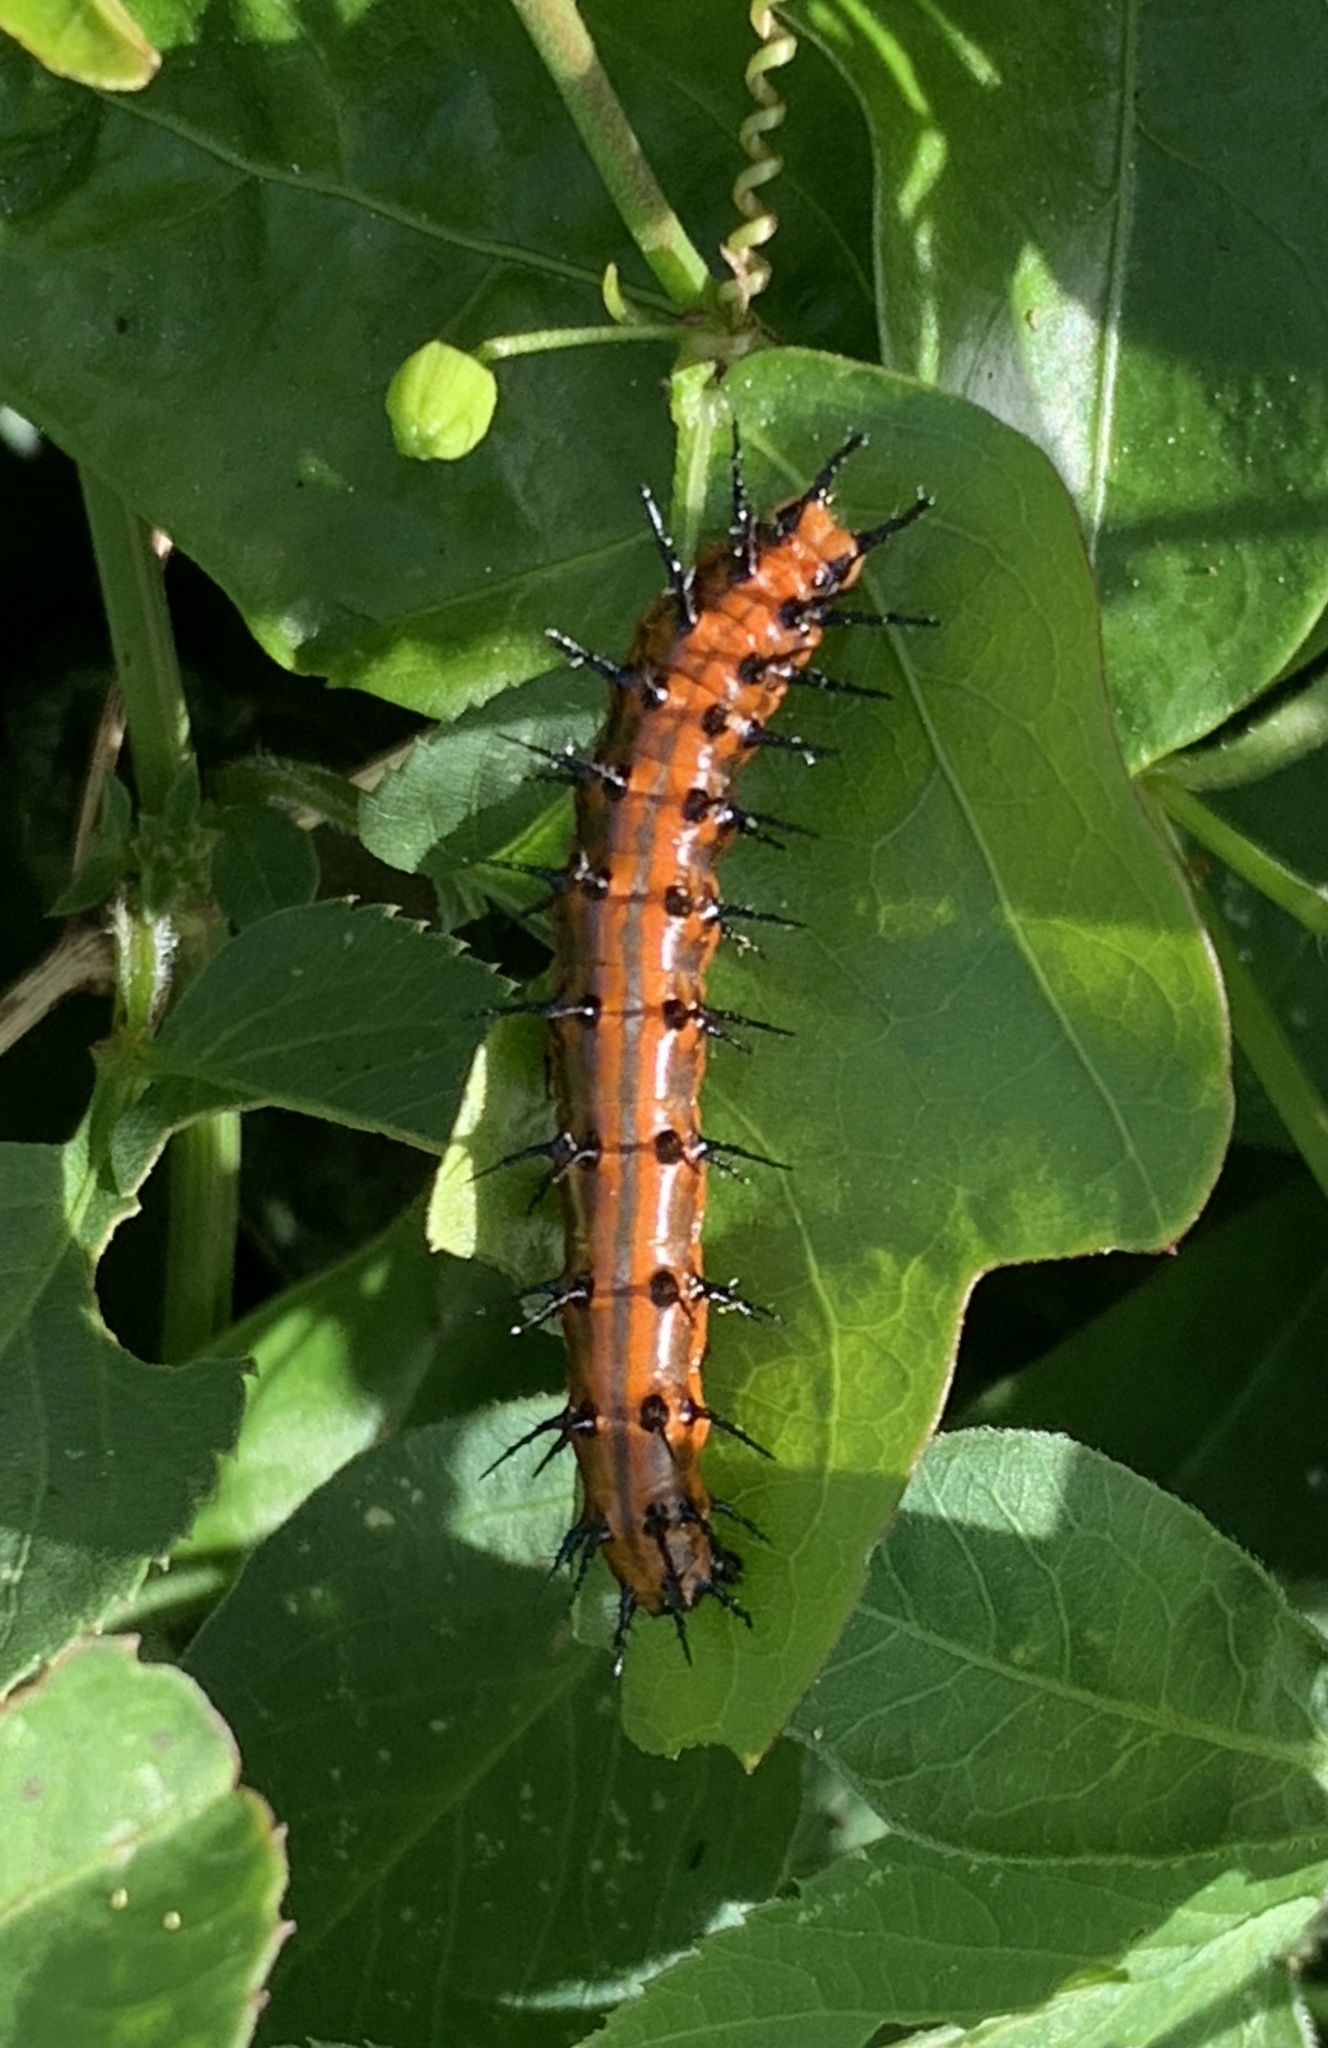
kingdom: Animalia
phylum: Arthropoda
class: Insecta
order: Lepidoptera
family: Nymphalidae
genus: Dione
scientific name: Dione vanillae
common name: Gulf fritillary
